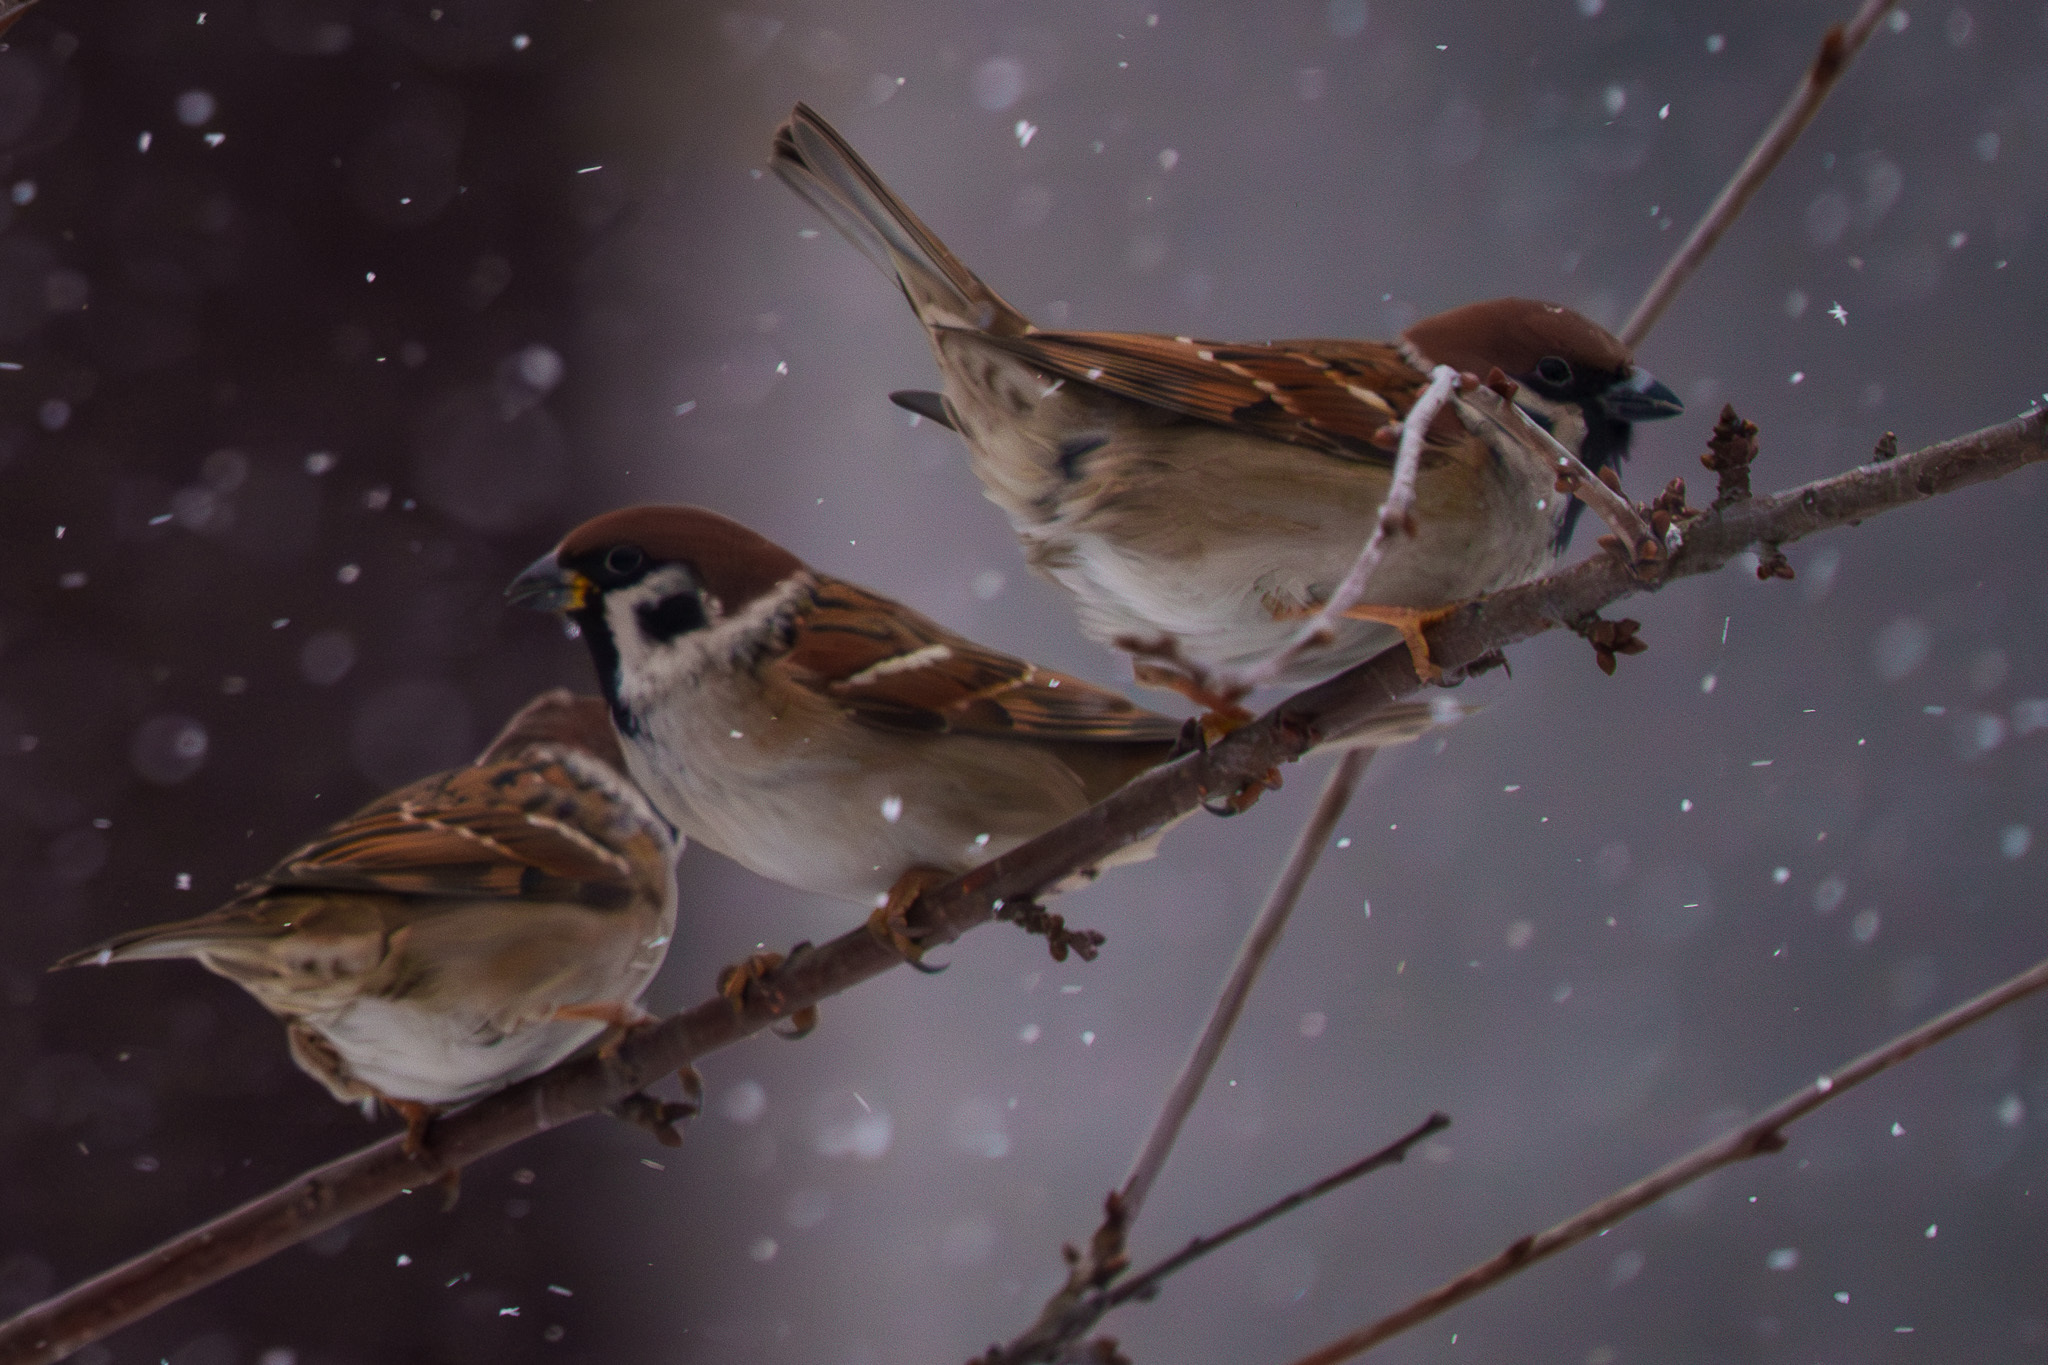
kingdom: Animalia
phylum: Chordata
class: Aves
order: Passeriformes
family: Passeridae
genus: Passer
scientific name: Passer montanus
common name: Eurasian tree sparrow
